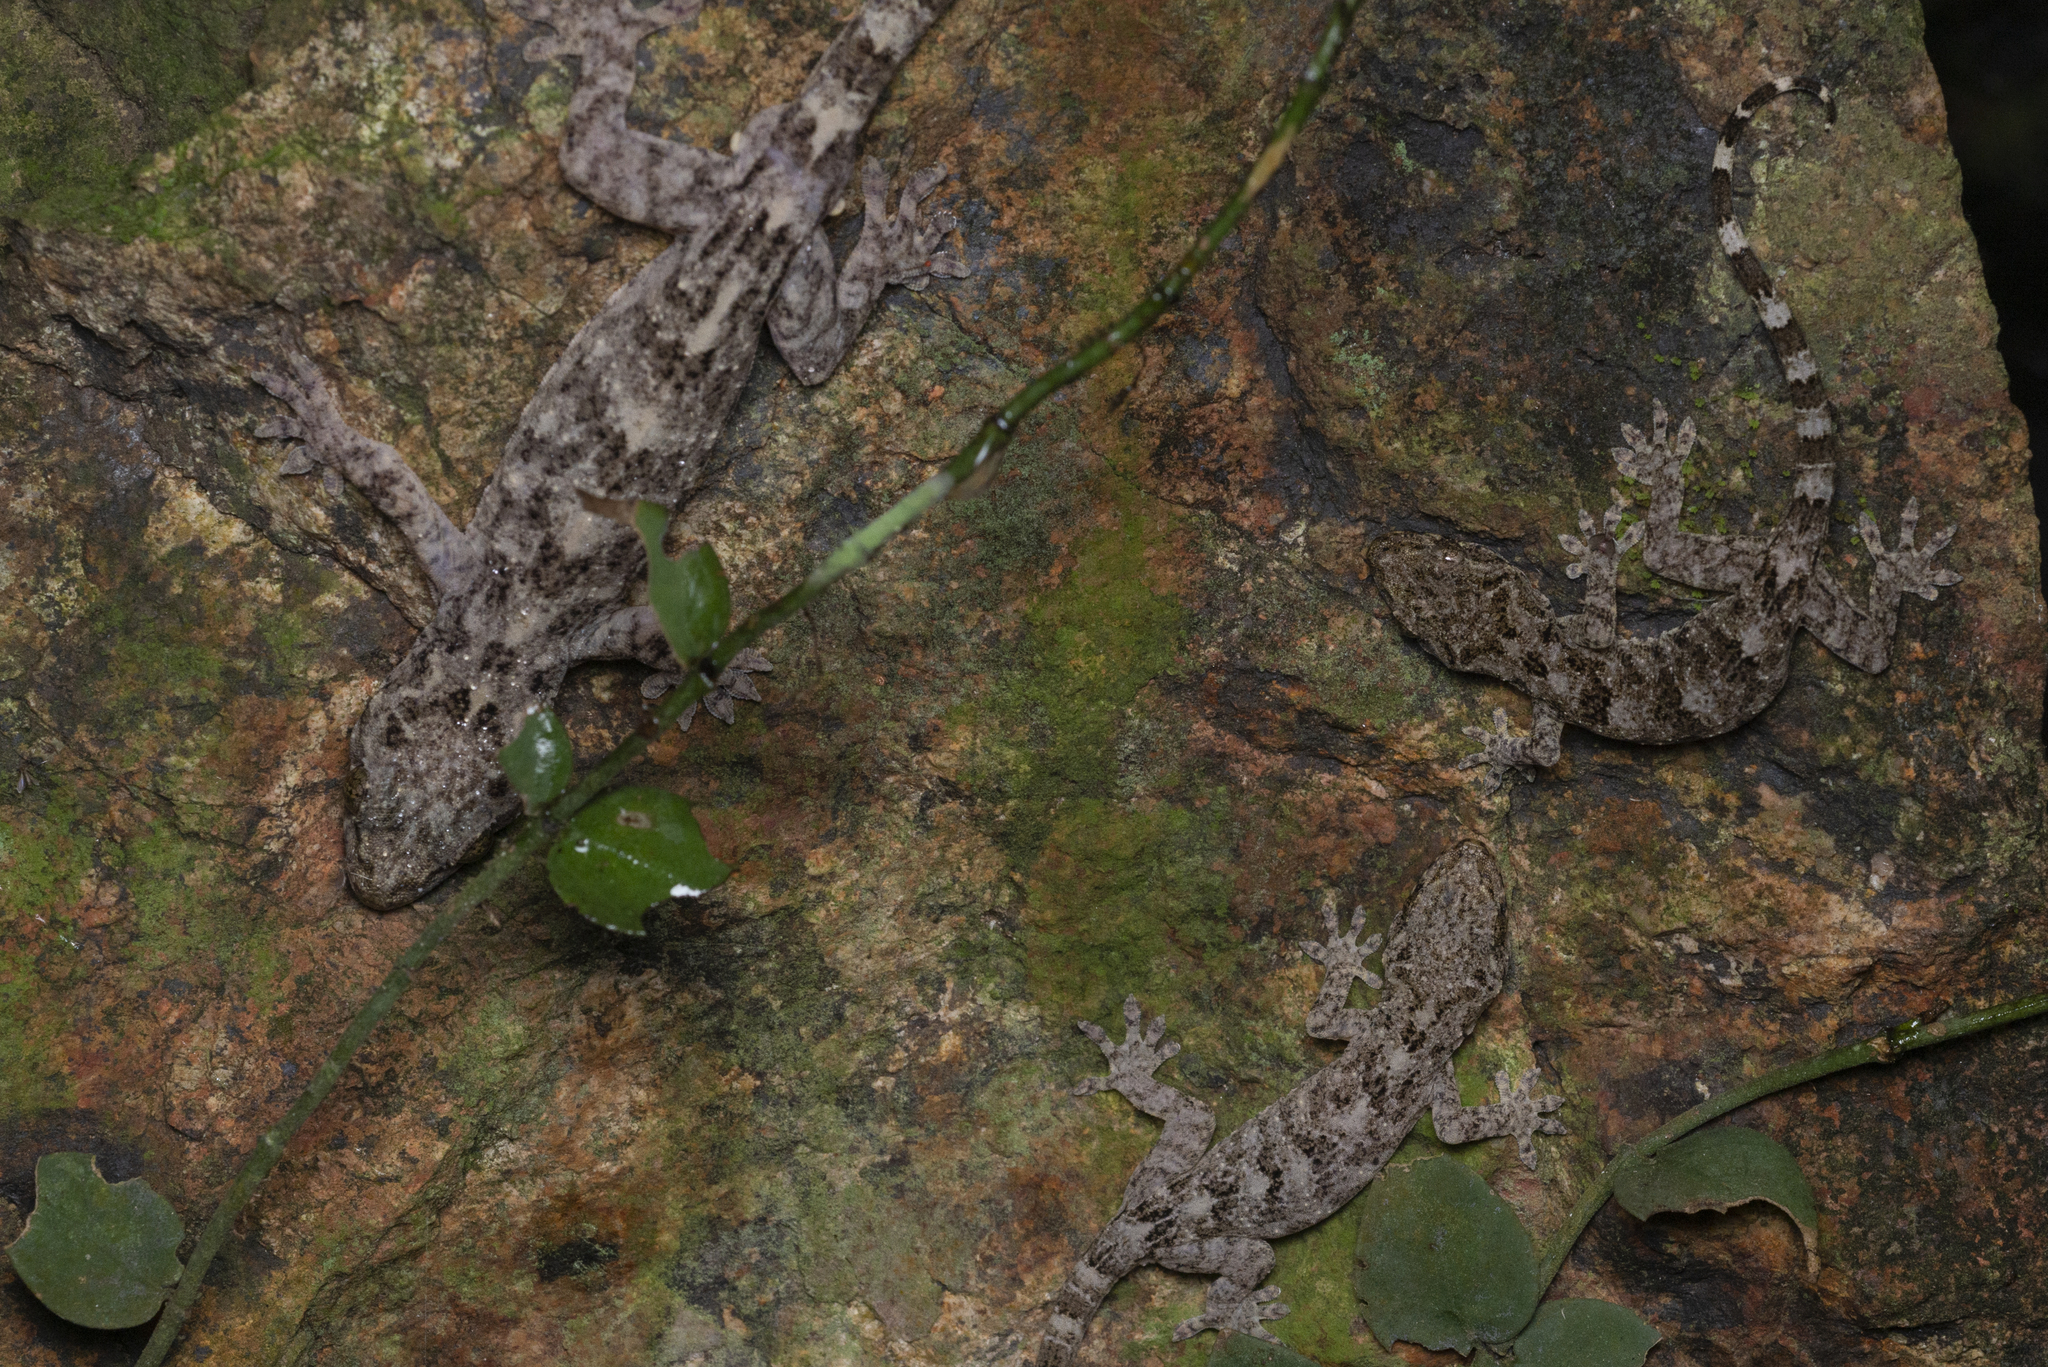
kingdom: Animalia
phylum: Chordata
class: Squamata
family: Gekkonidae
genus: Gekko
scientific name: Gekko chinensis
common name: Gray's chinese gecko
